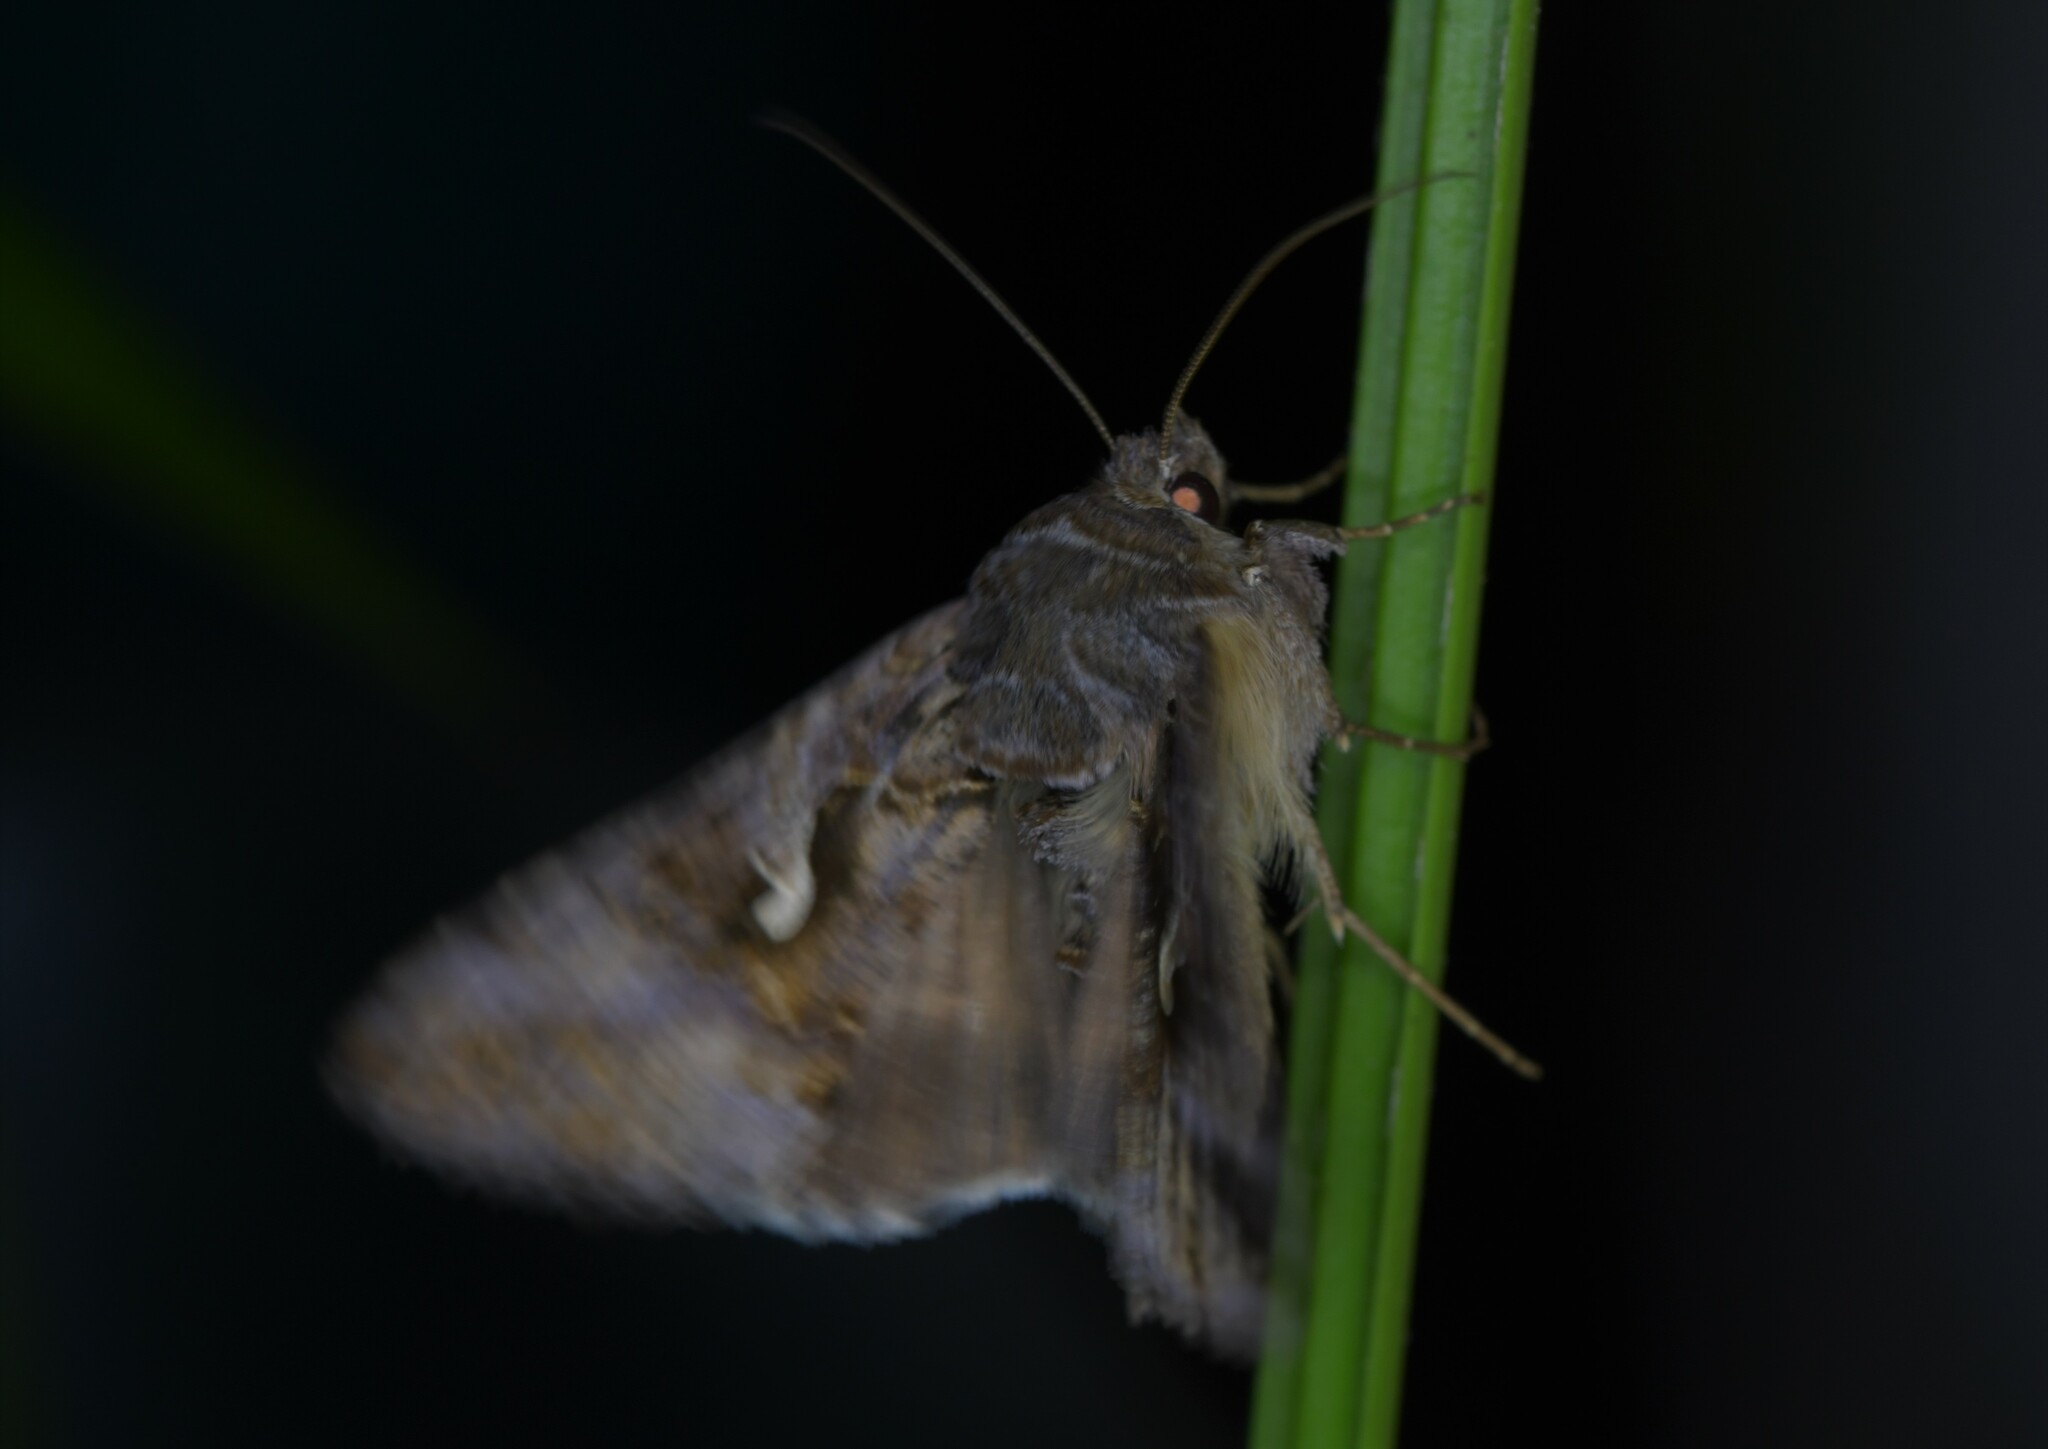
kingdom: Animalia
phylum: Arthropoda
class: Insecta
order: Lepidoptera
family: Noctuidae
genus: Autographa
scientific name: Autographa gamma
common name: Silver y
